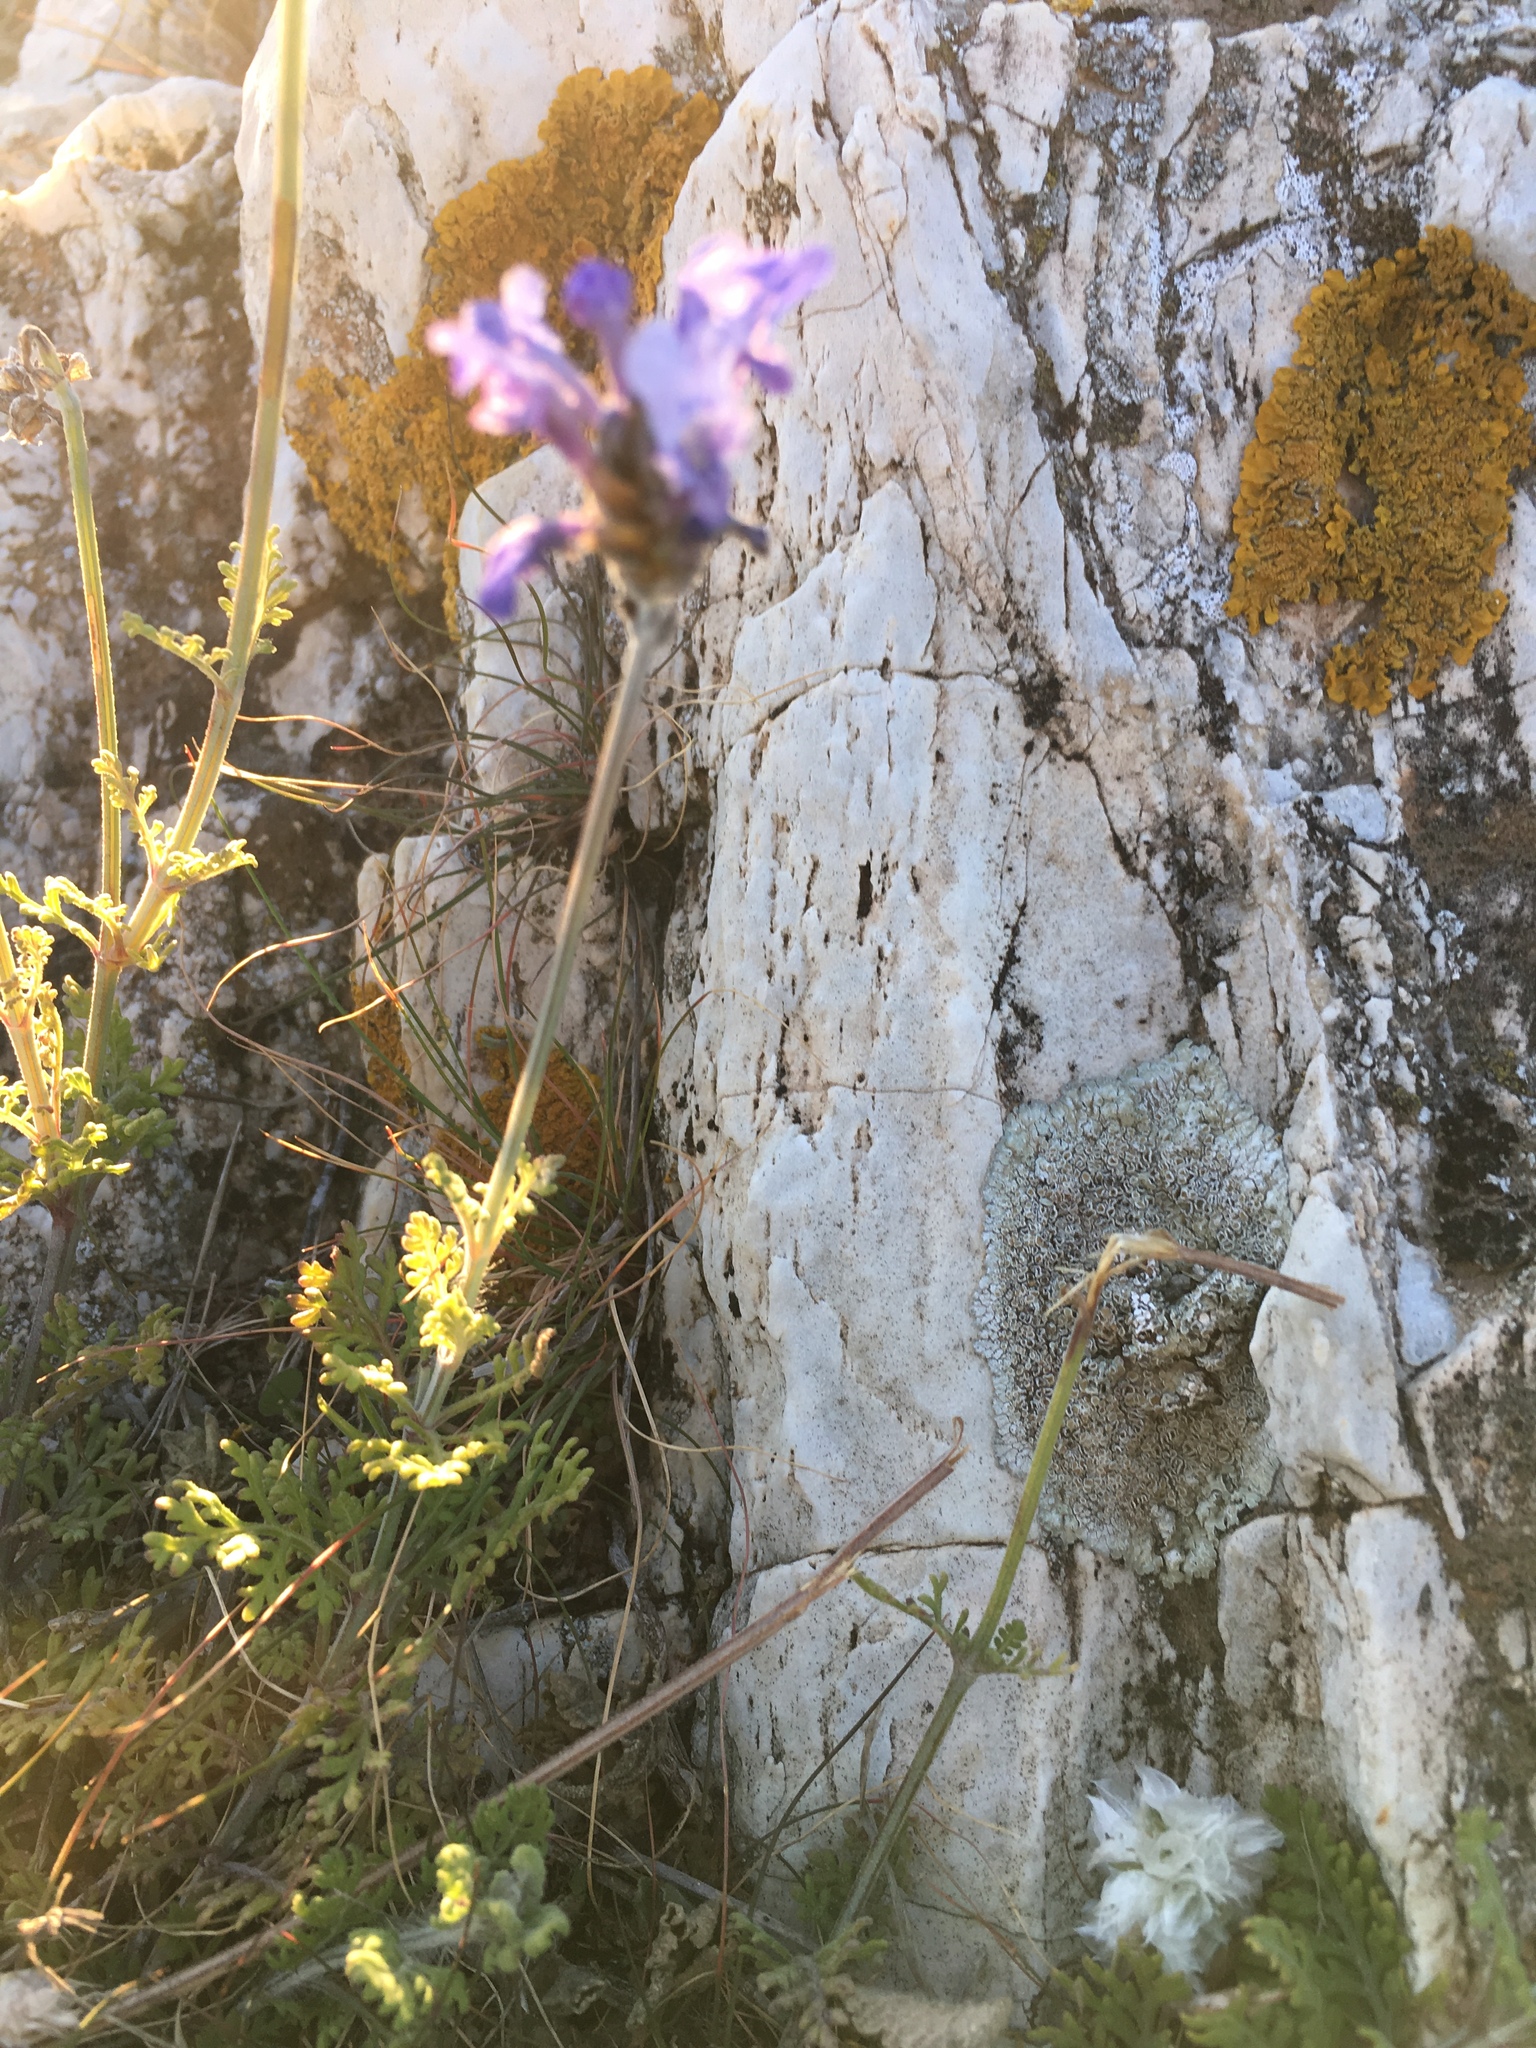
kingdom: Plantae
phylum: Tracheophyta
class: Magnoliopsida
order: Lamiales
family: Lamiaceae
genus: Lavandula
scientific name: Lavandula multifida
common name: Fern-leaf lavender
